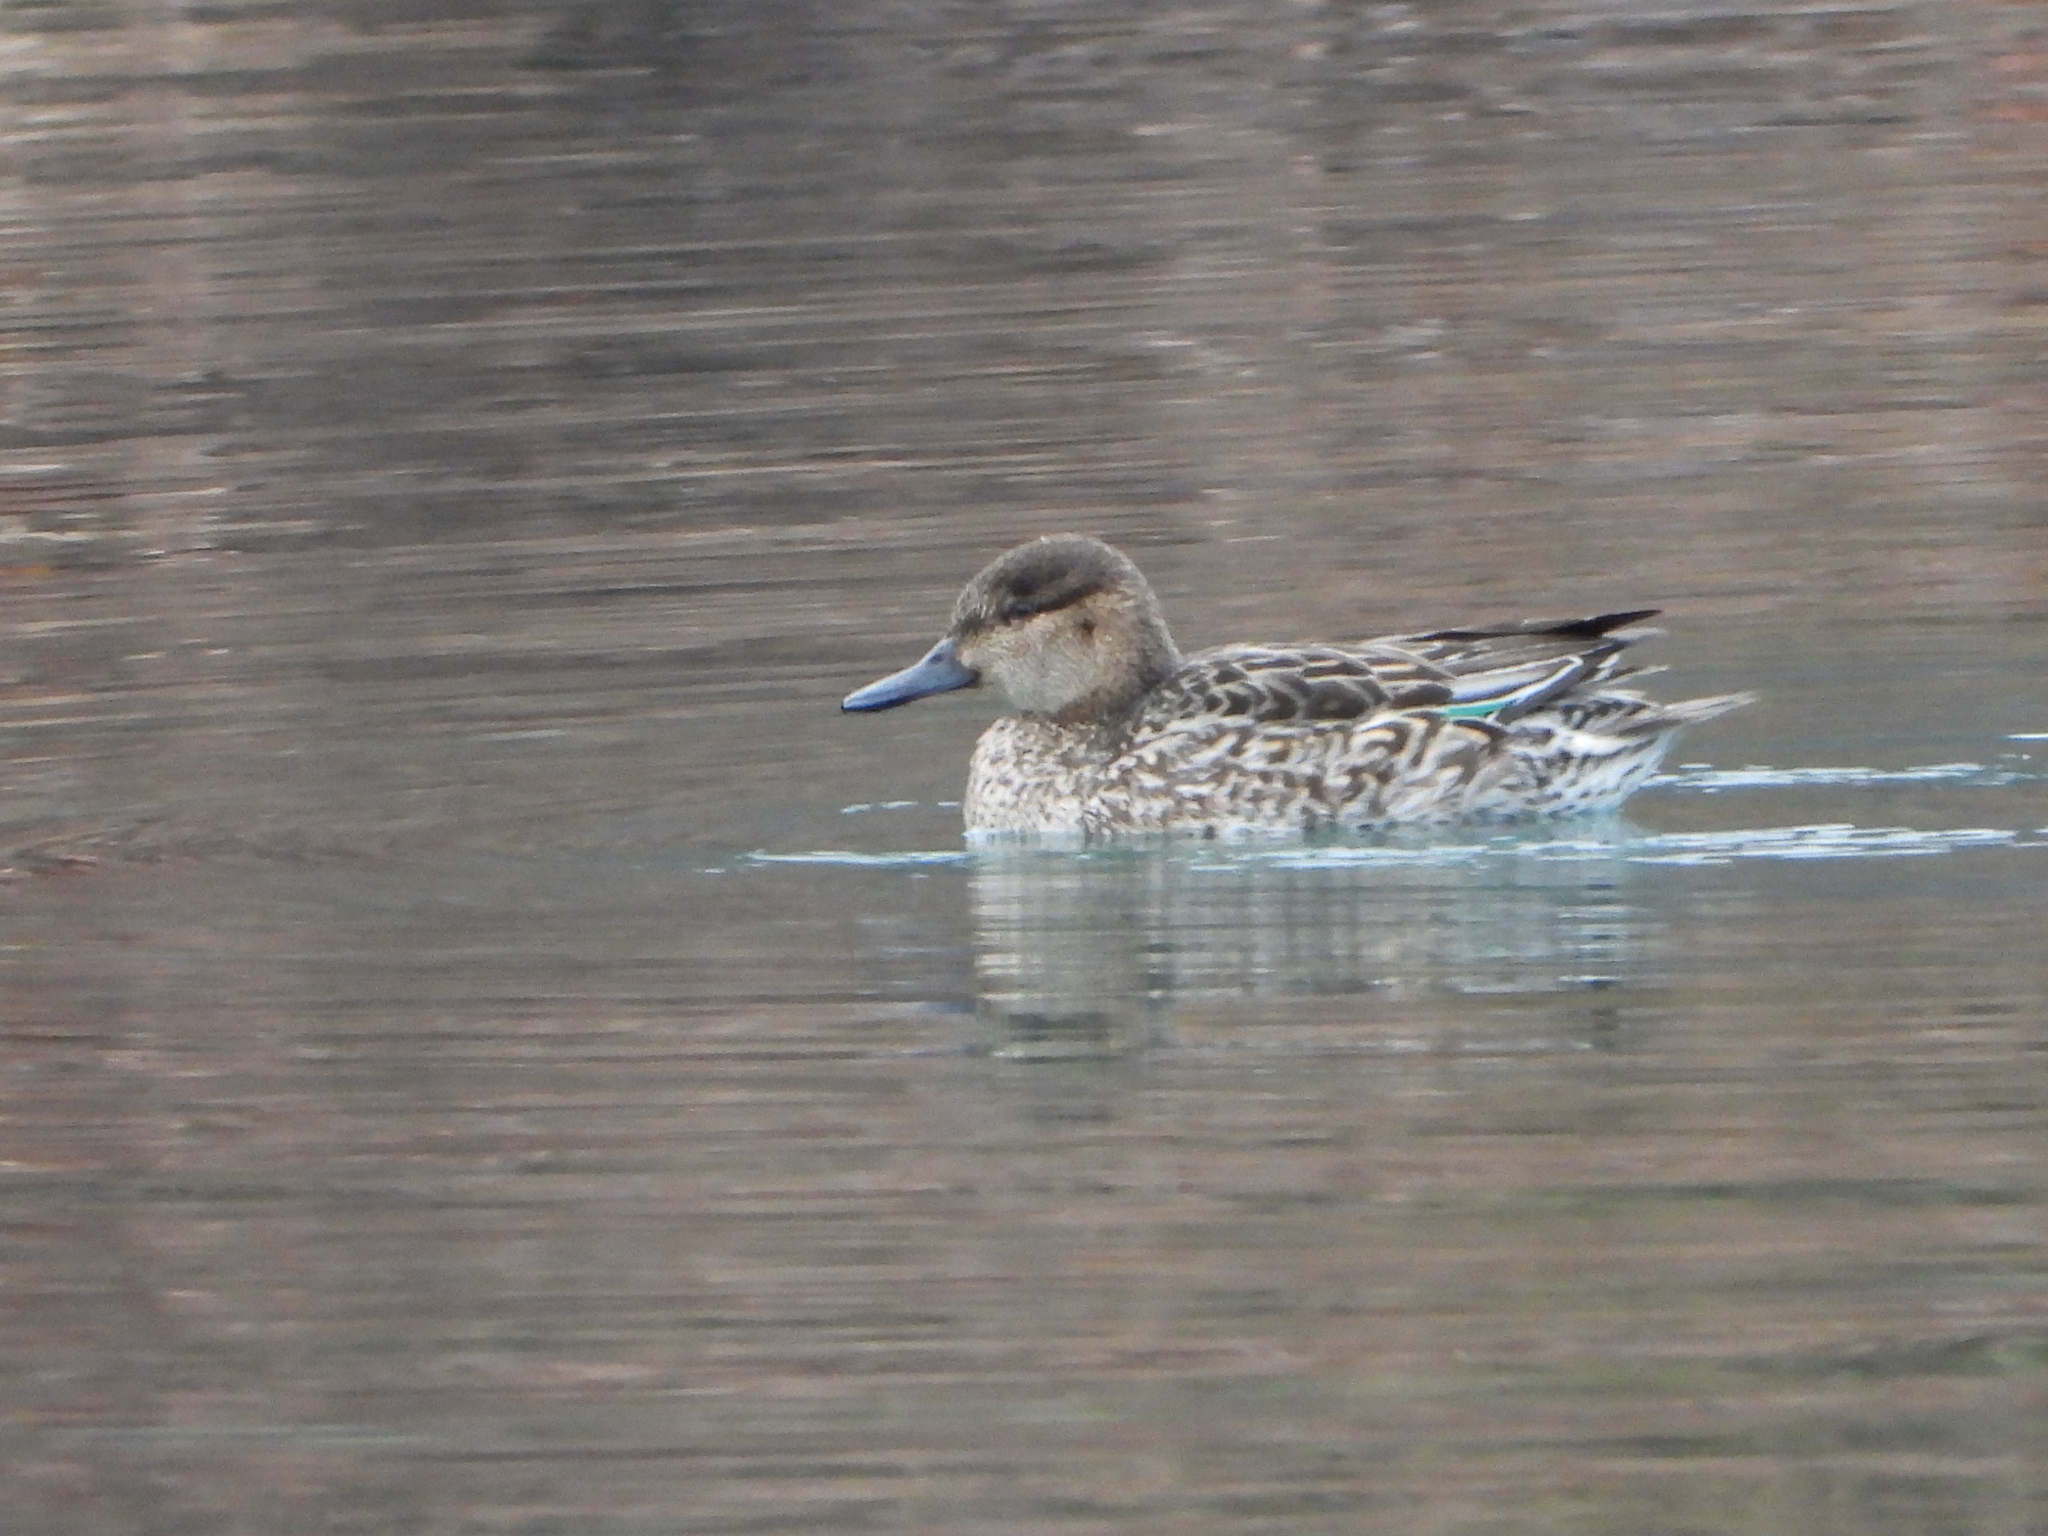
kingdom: Animalia
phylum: Chordata
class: Aves
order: Anseriformes
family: Anatidae
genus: Anas
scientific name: Anas crecca
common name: Eurasian teal
